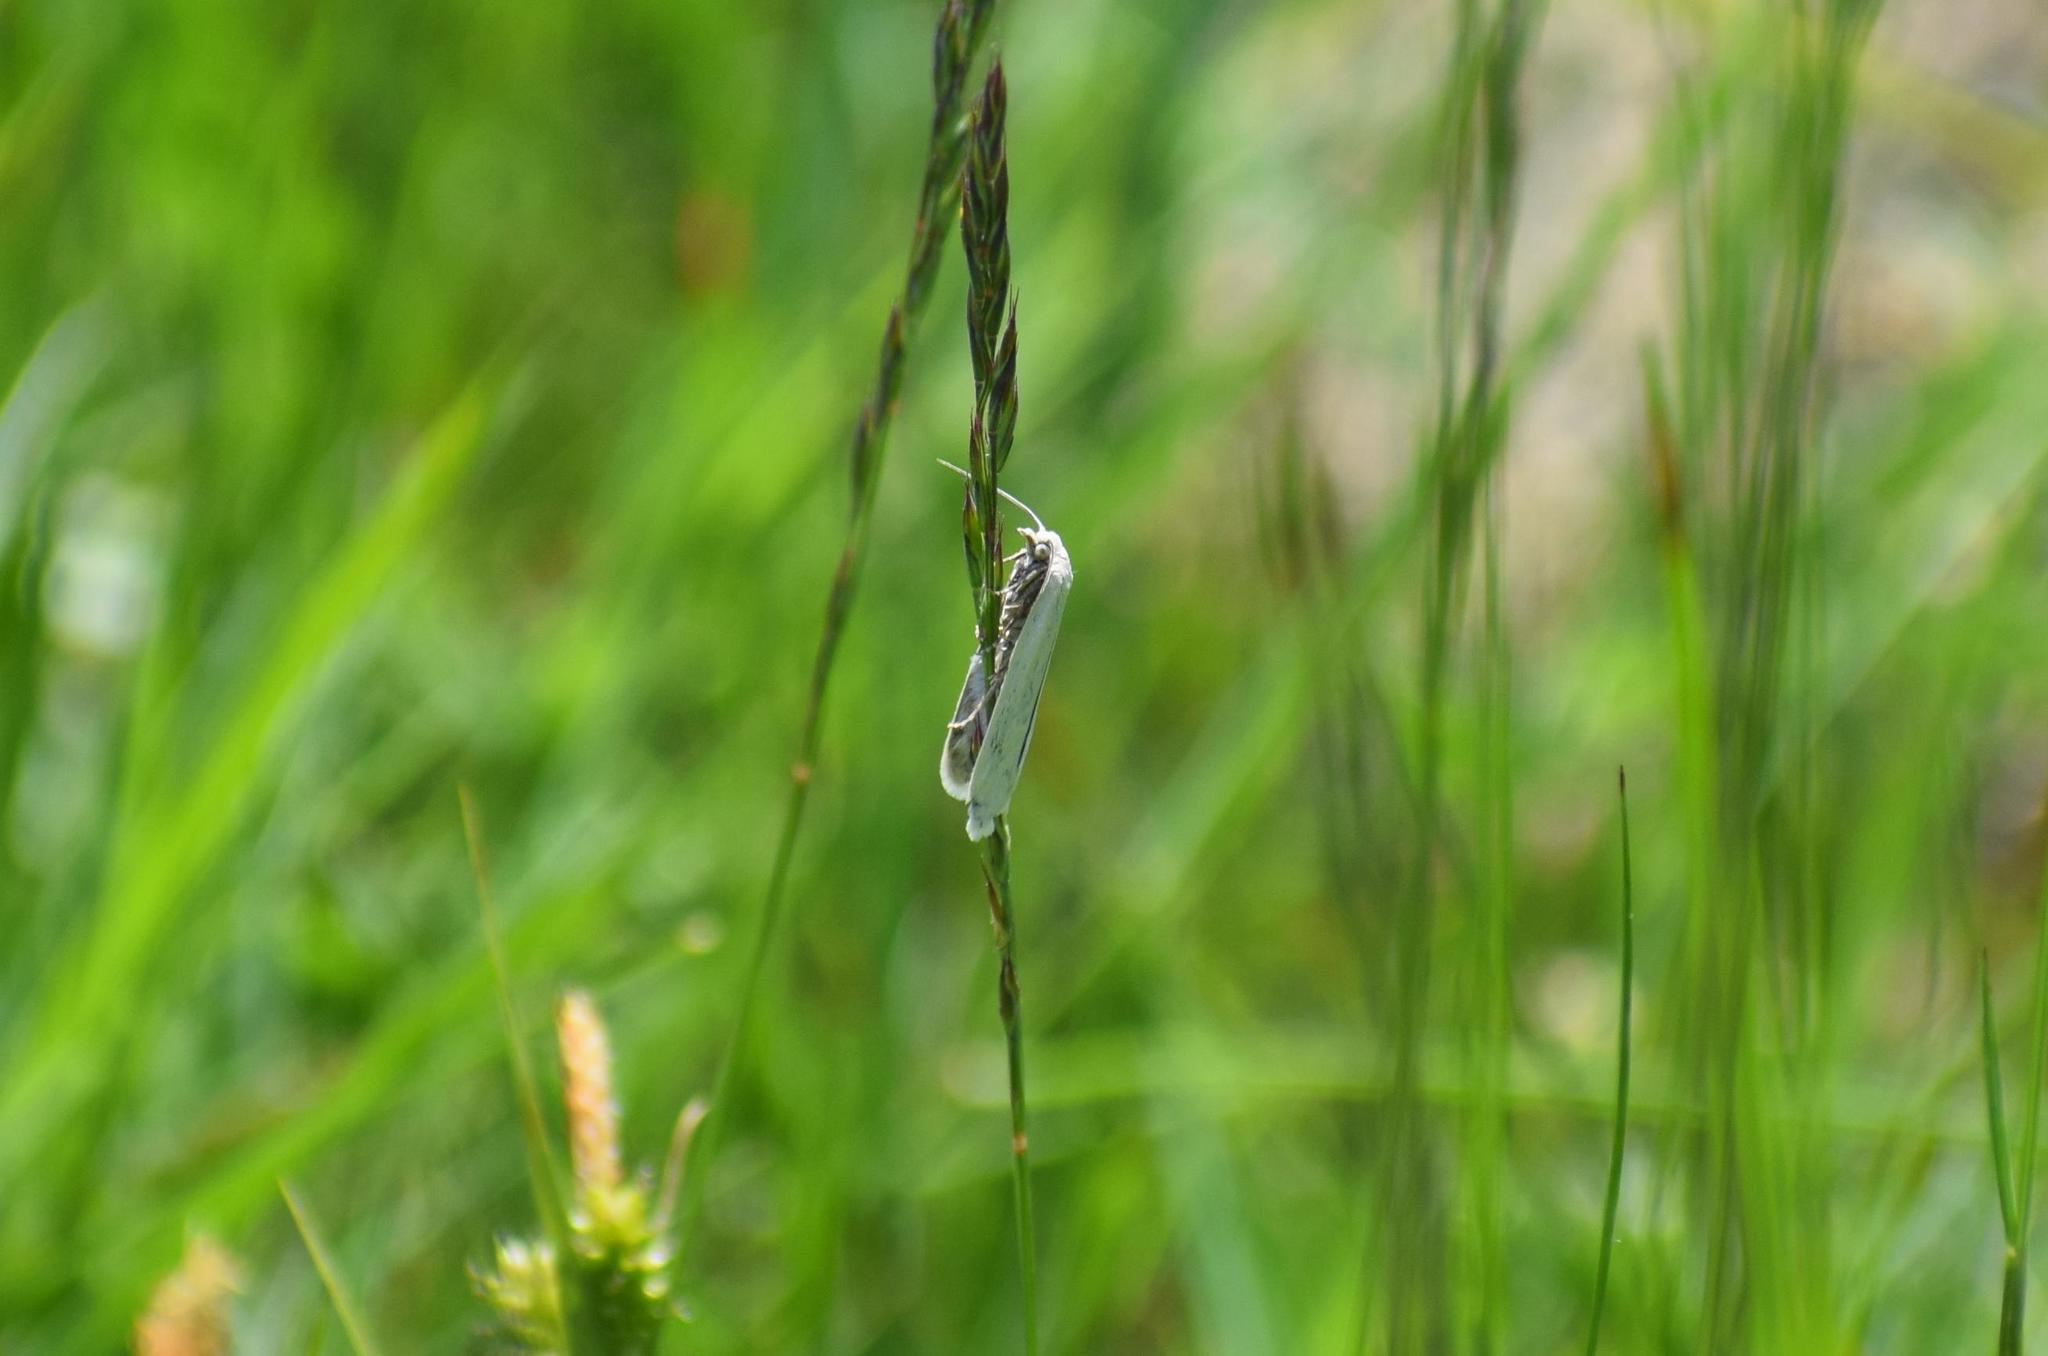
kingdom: Animalia
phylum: Arthropoda
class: Insecta
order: Lepidoptera
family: Tortricidae
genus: Eana
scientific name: Eana argentana
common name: Silver shade
